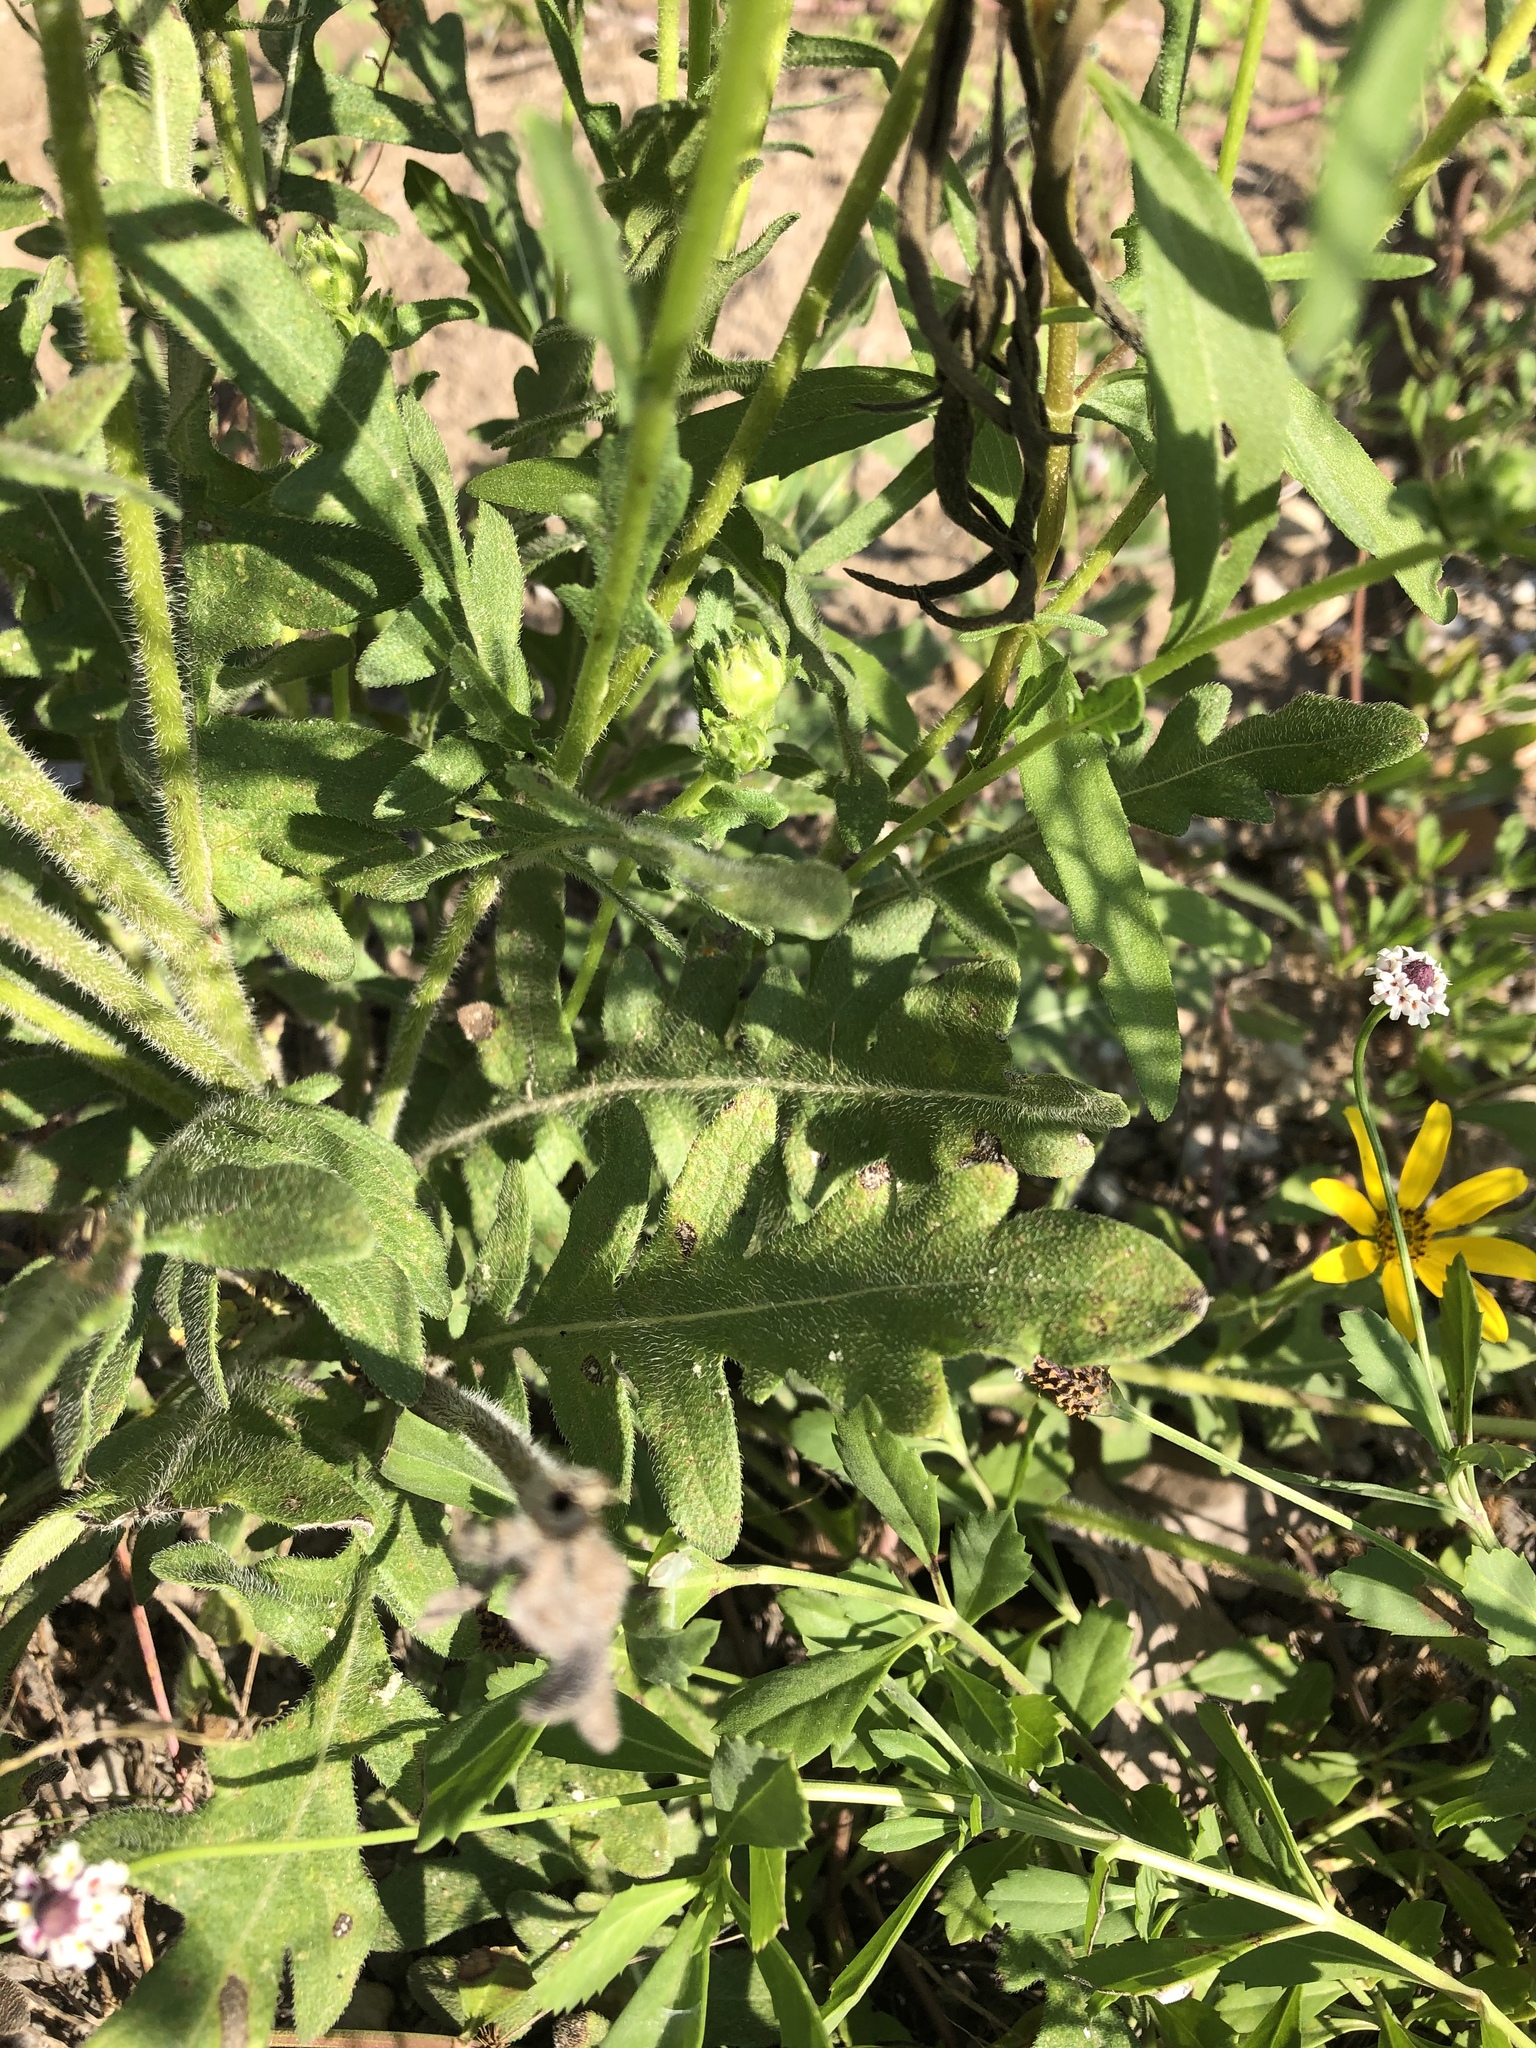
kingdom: Plantae
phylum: Tracheophyta
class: Magnoliopsida
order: Asterales
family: Asteraceae
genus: Engelmannia
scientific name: Engelmannia peristenia
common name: Engelmann's daisy
